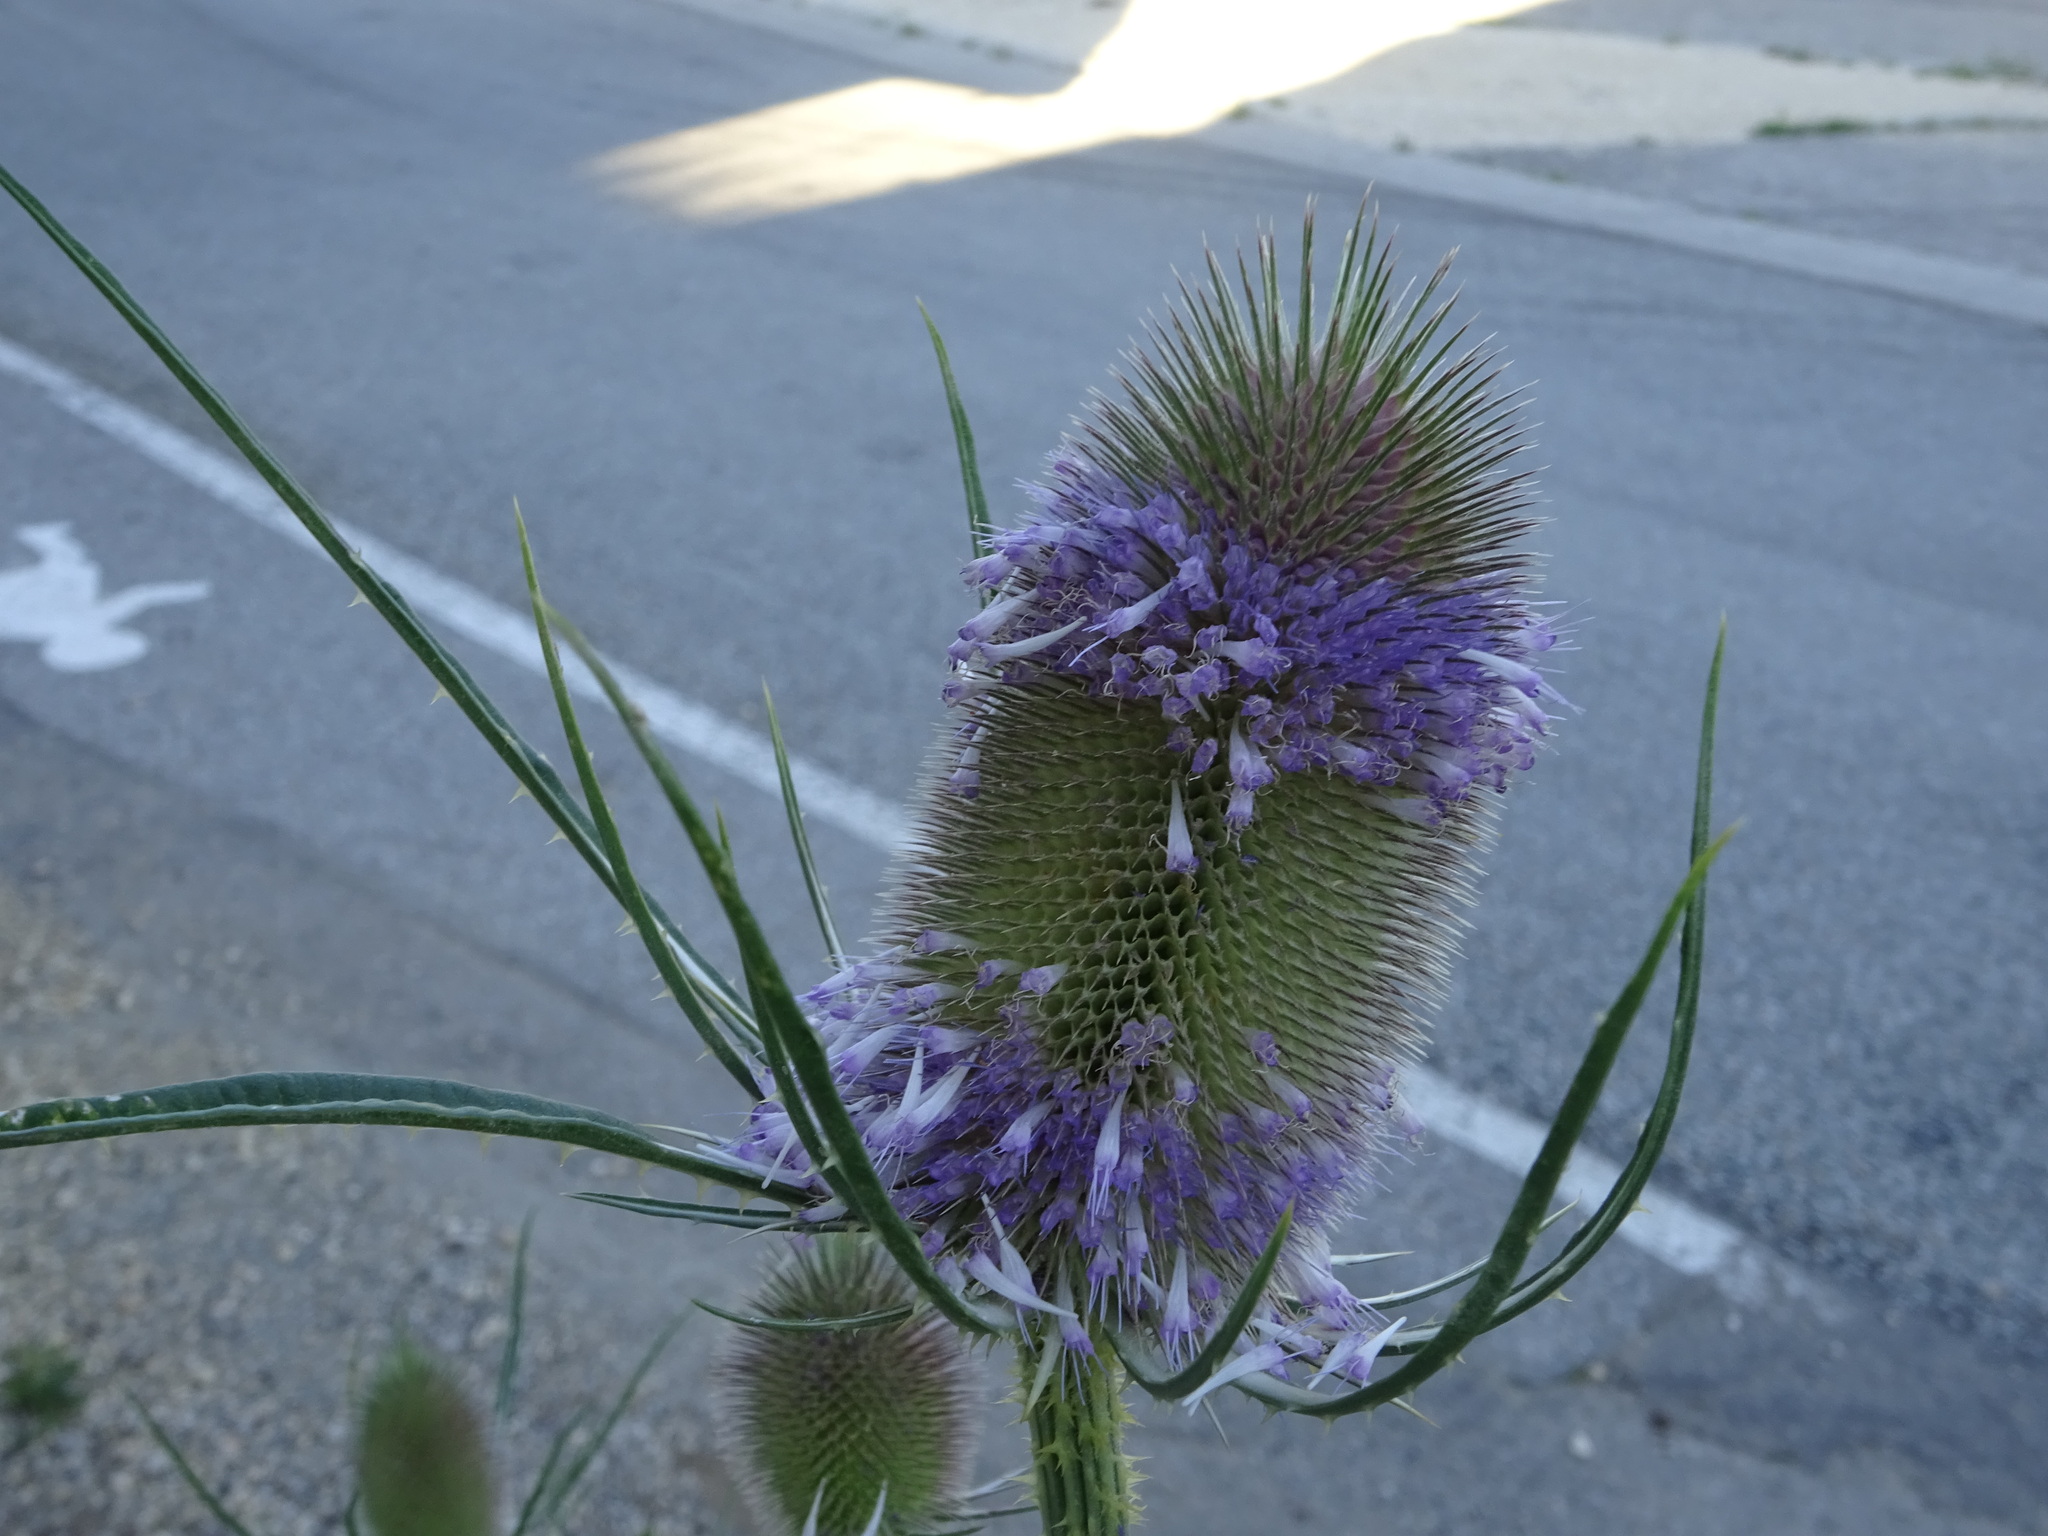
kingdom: Plantae
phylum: Tracheophyta
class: Magnoliopsida
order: Dipsacales
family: Caprifoliaceae
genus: Dipsacus
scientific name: Dipsacus fullonum
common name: Teasel
